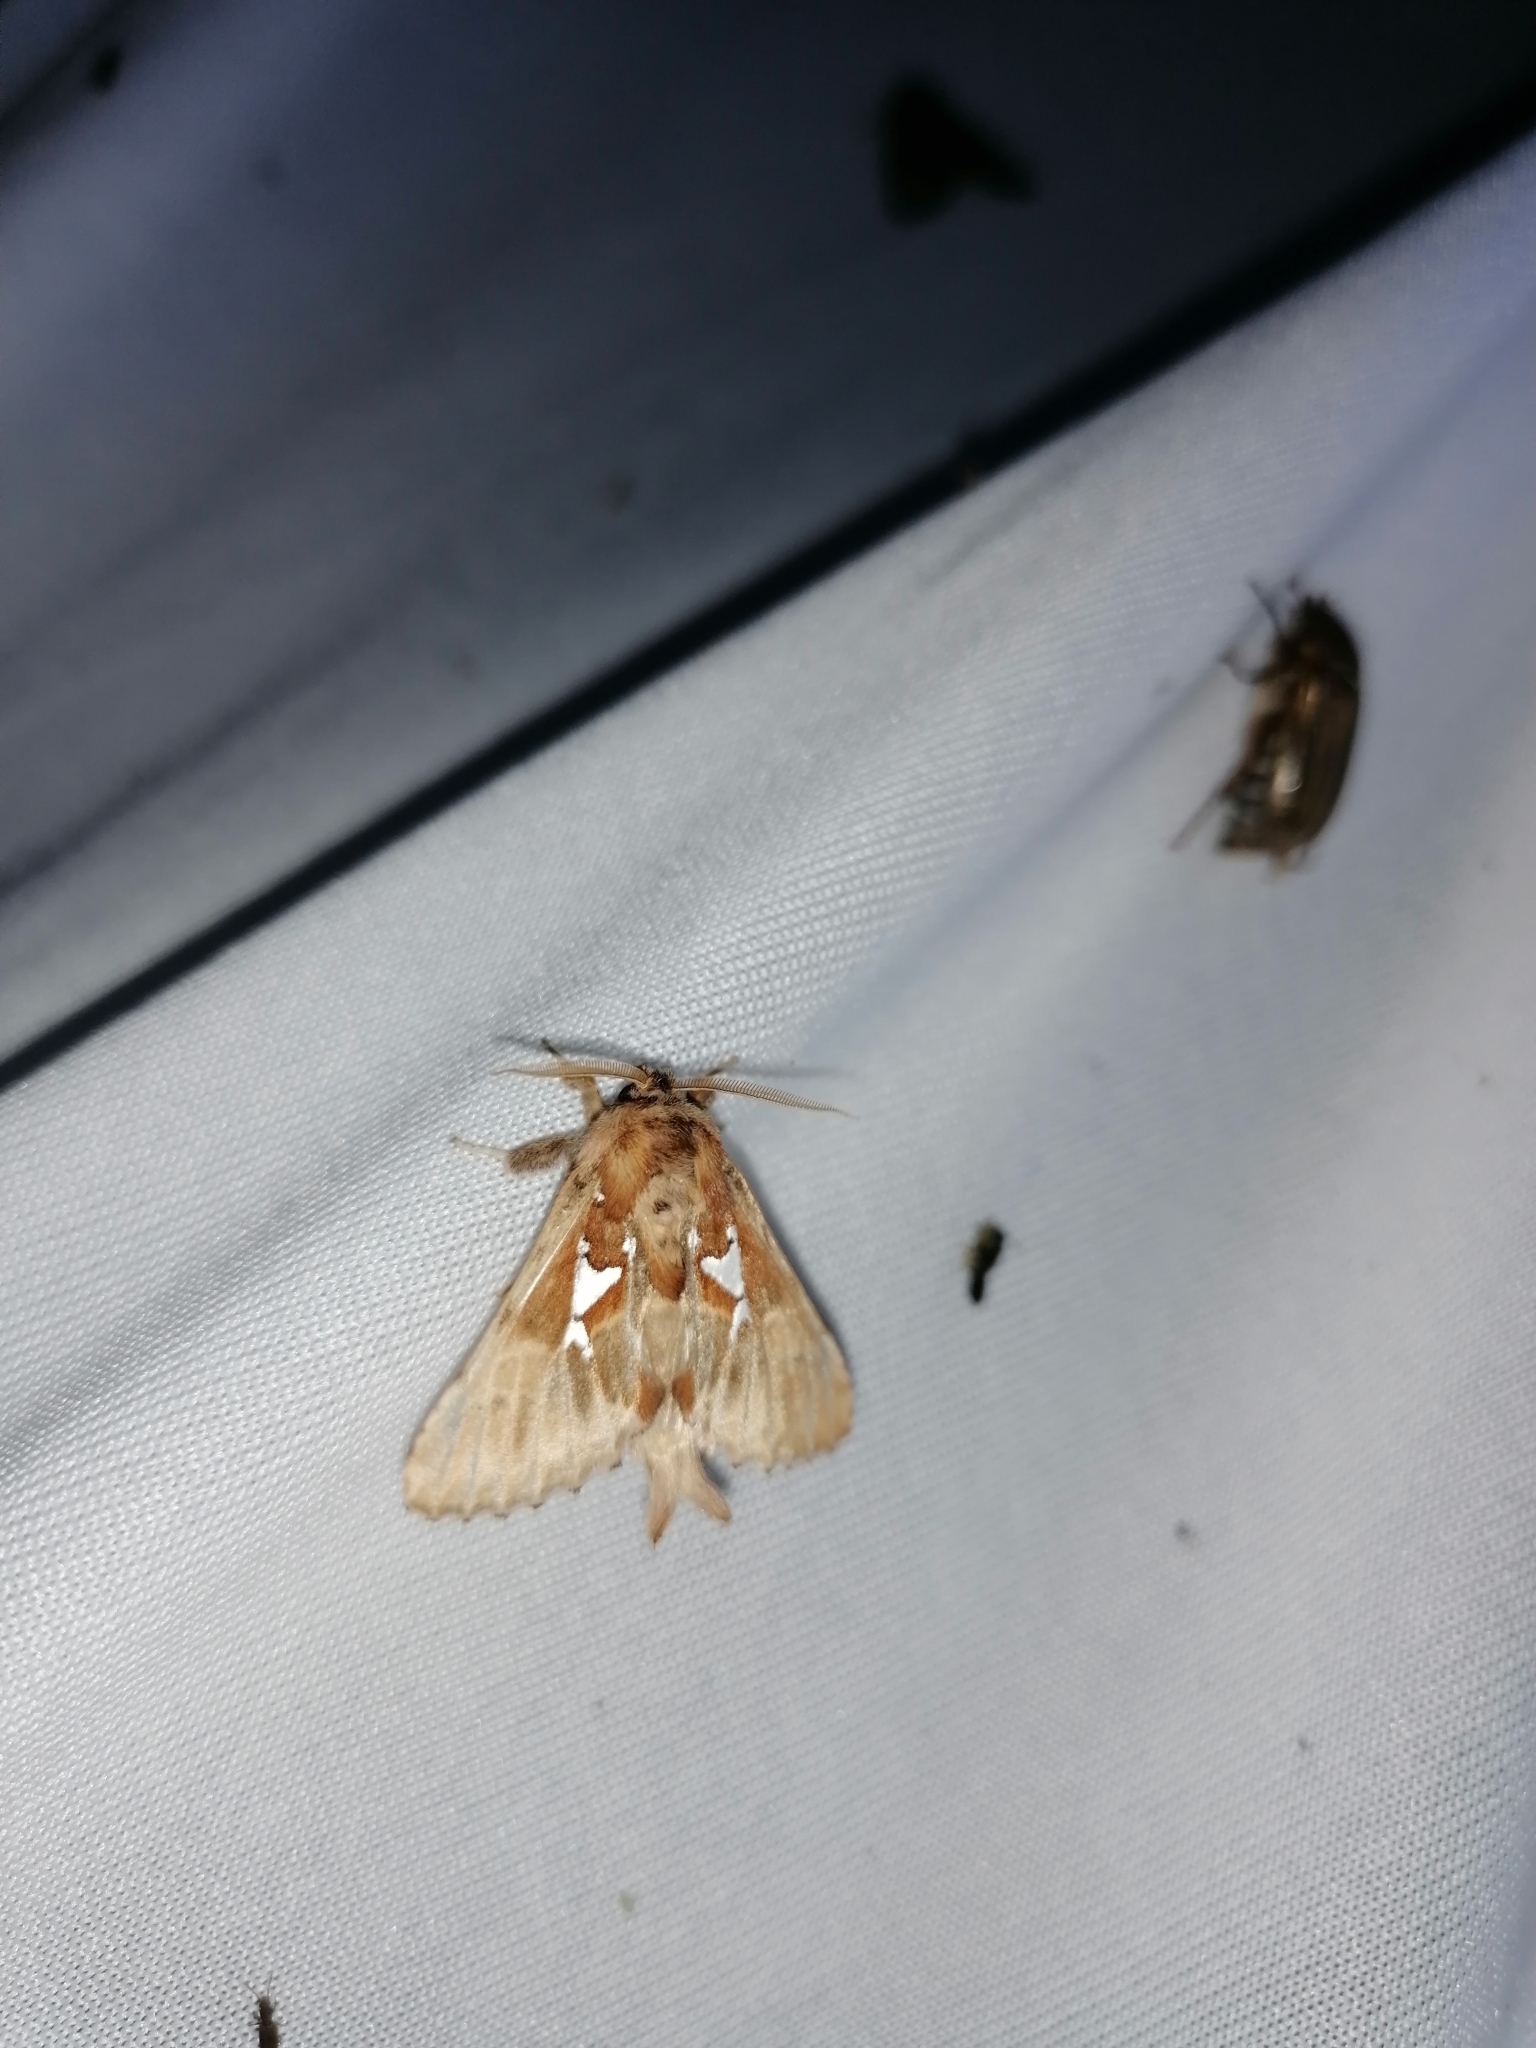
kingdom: Animalia
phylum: Arthropoda
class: Insecta
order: Lepidoptera
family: Notodontidae
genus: Spatalia
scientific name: Spatalia argentina
